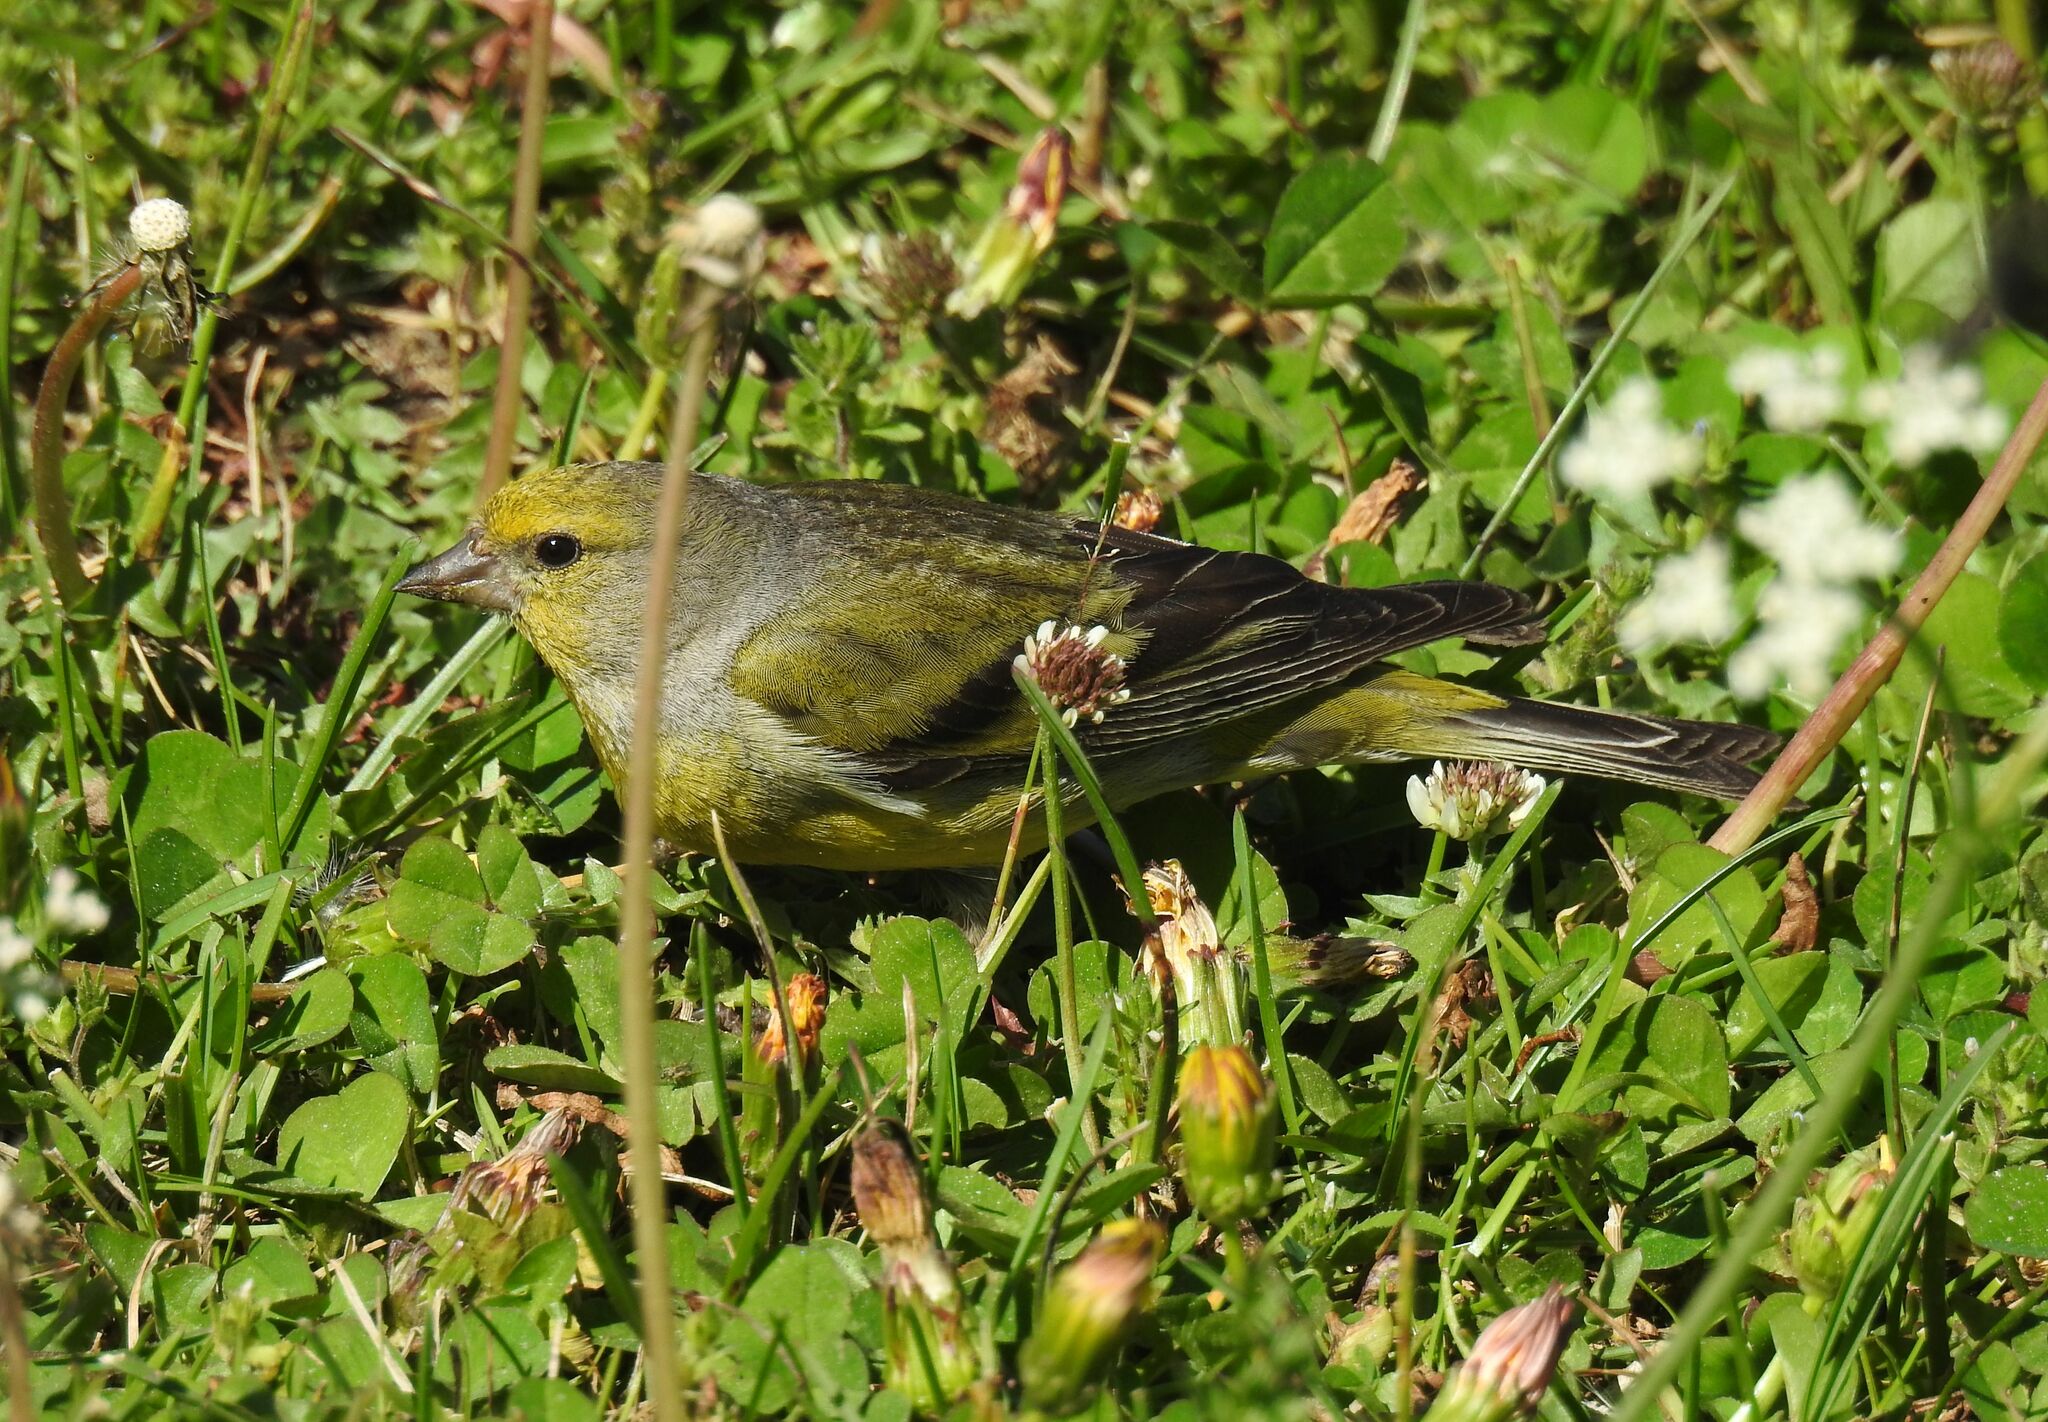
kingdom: Animalia
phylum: Chordata
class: Aves
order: Passeriformes
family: Fringillidae
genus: Carduelis
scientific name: Carduelis citrinella
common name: Citril finch
